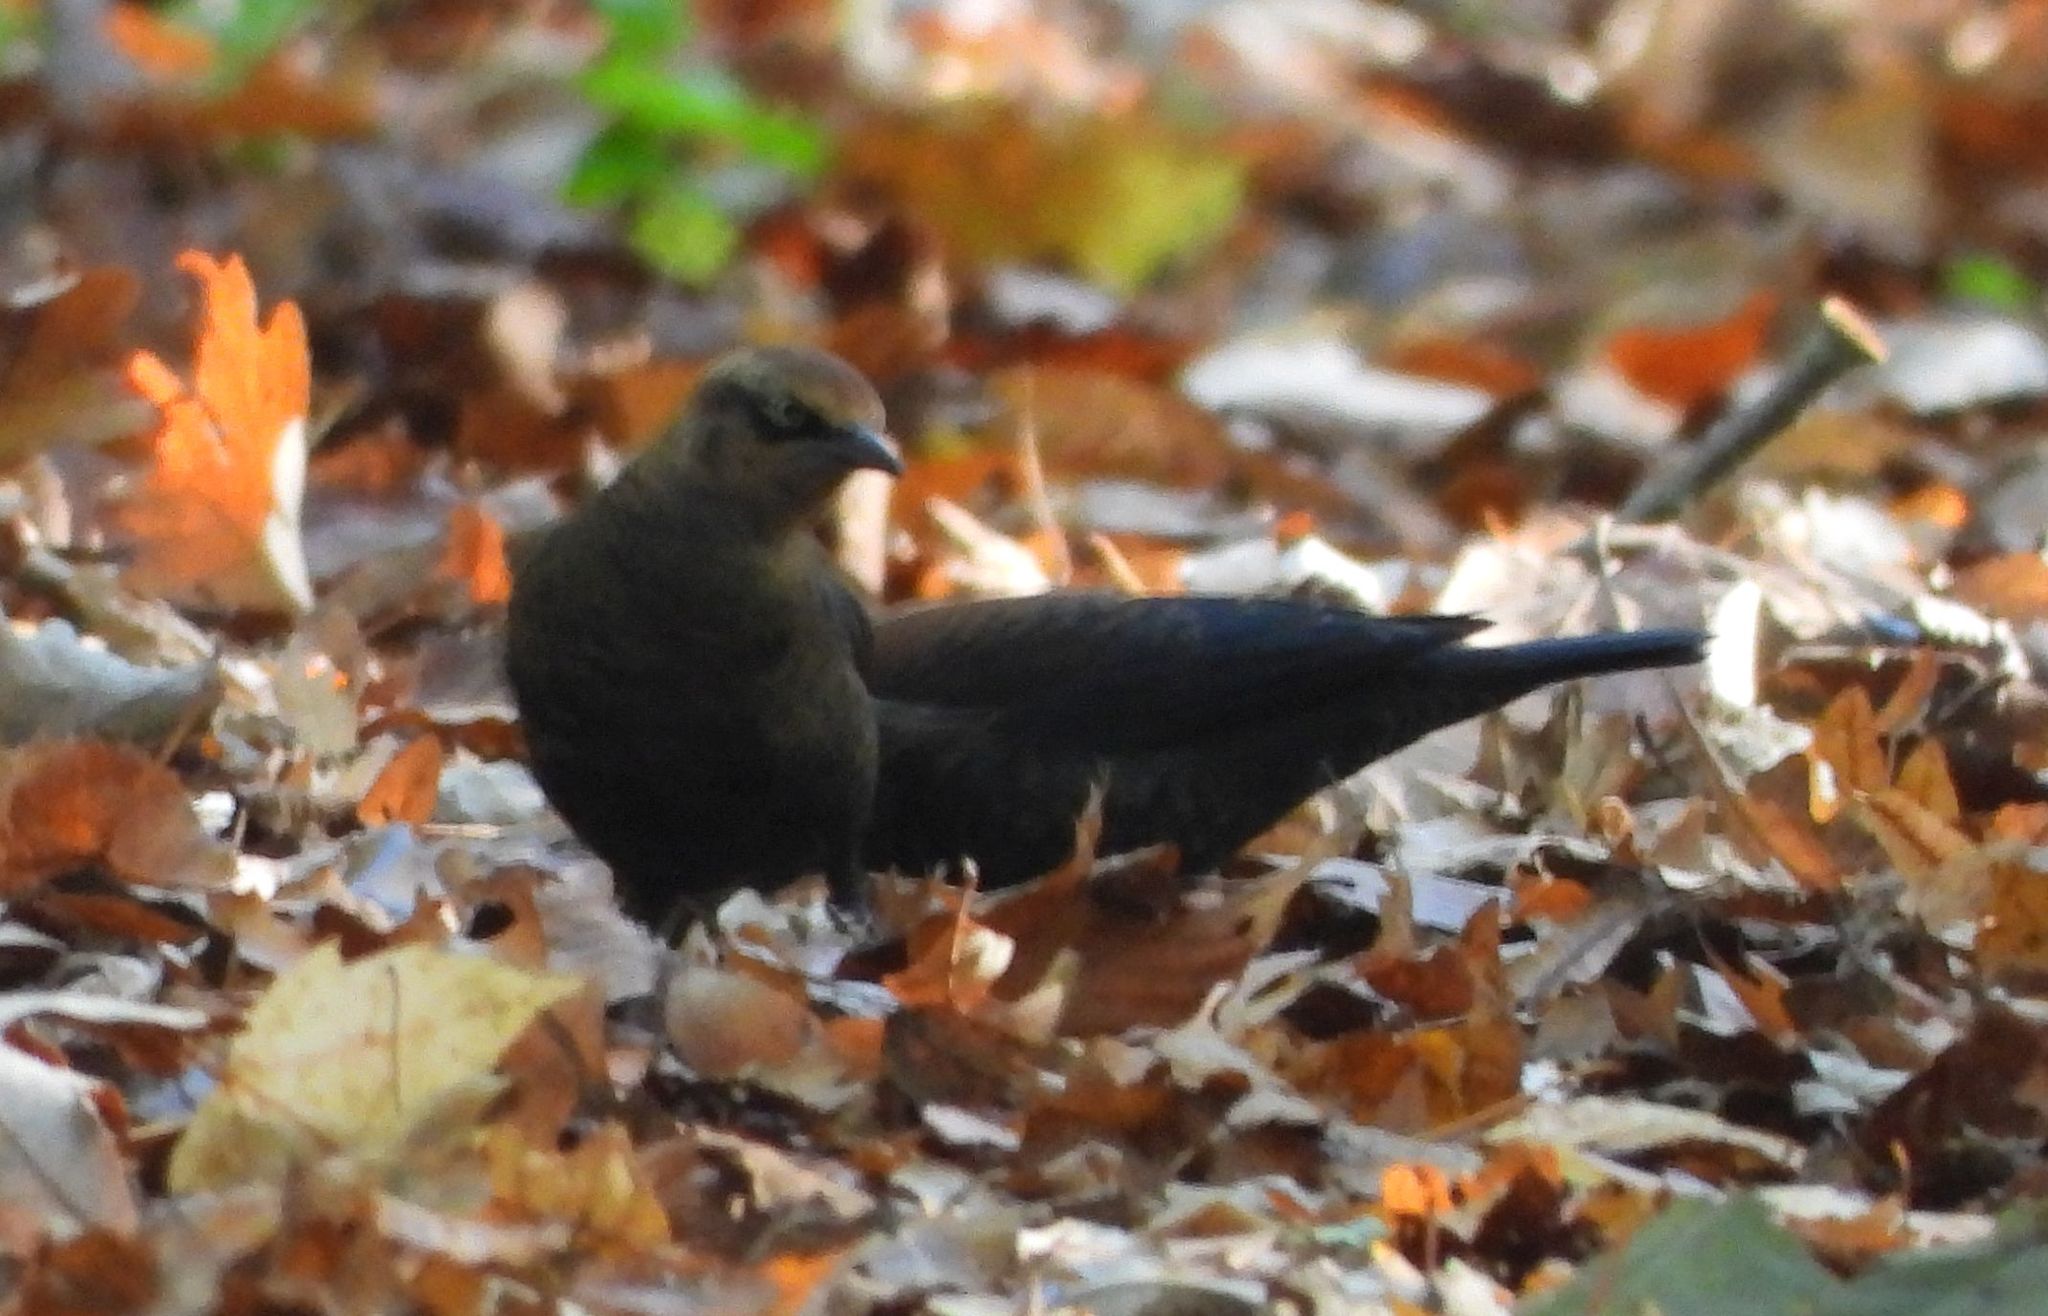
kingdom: Animalia
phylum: Chordata
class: Aves
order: Passeriformes
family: Icteridae
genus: Euphagus
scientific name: Euphagus carolinus
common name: Rusty blackbird
